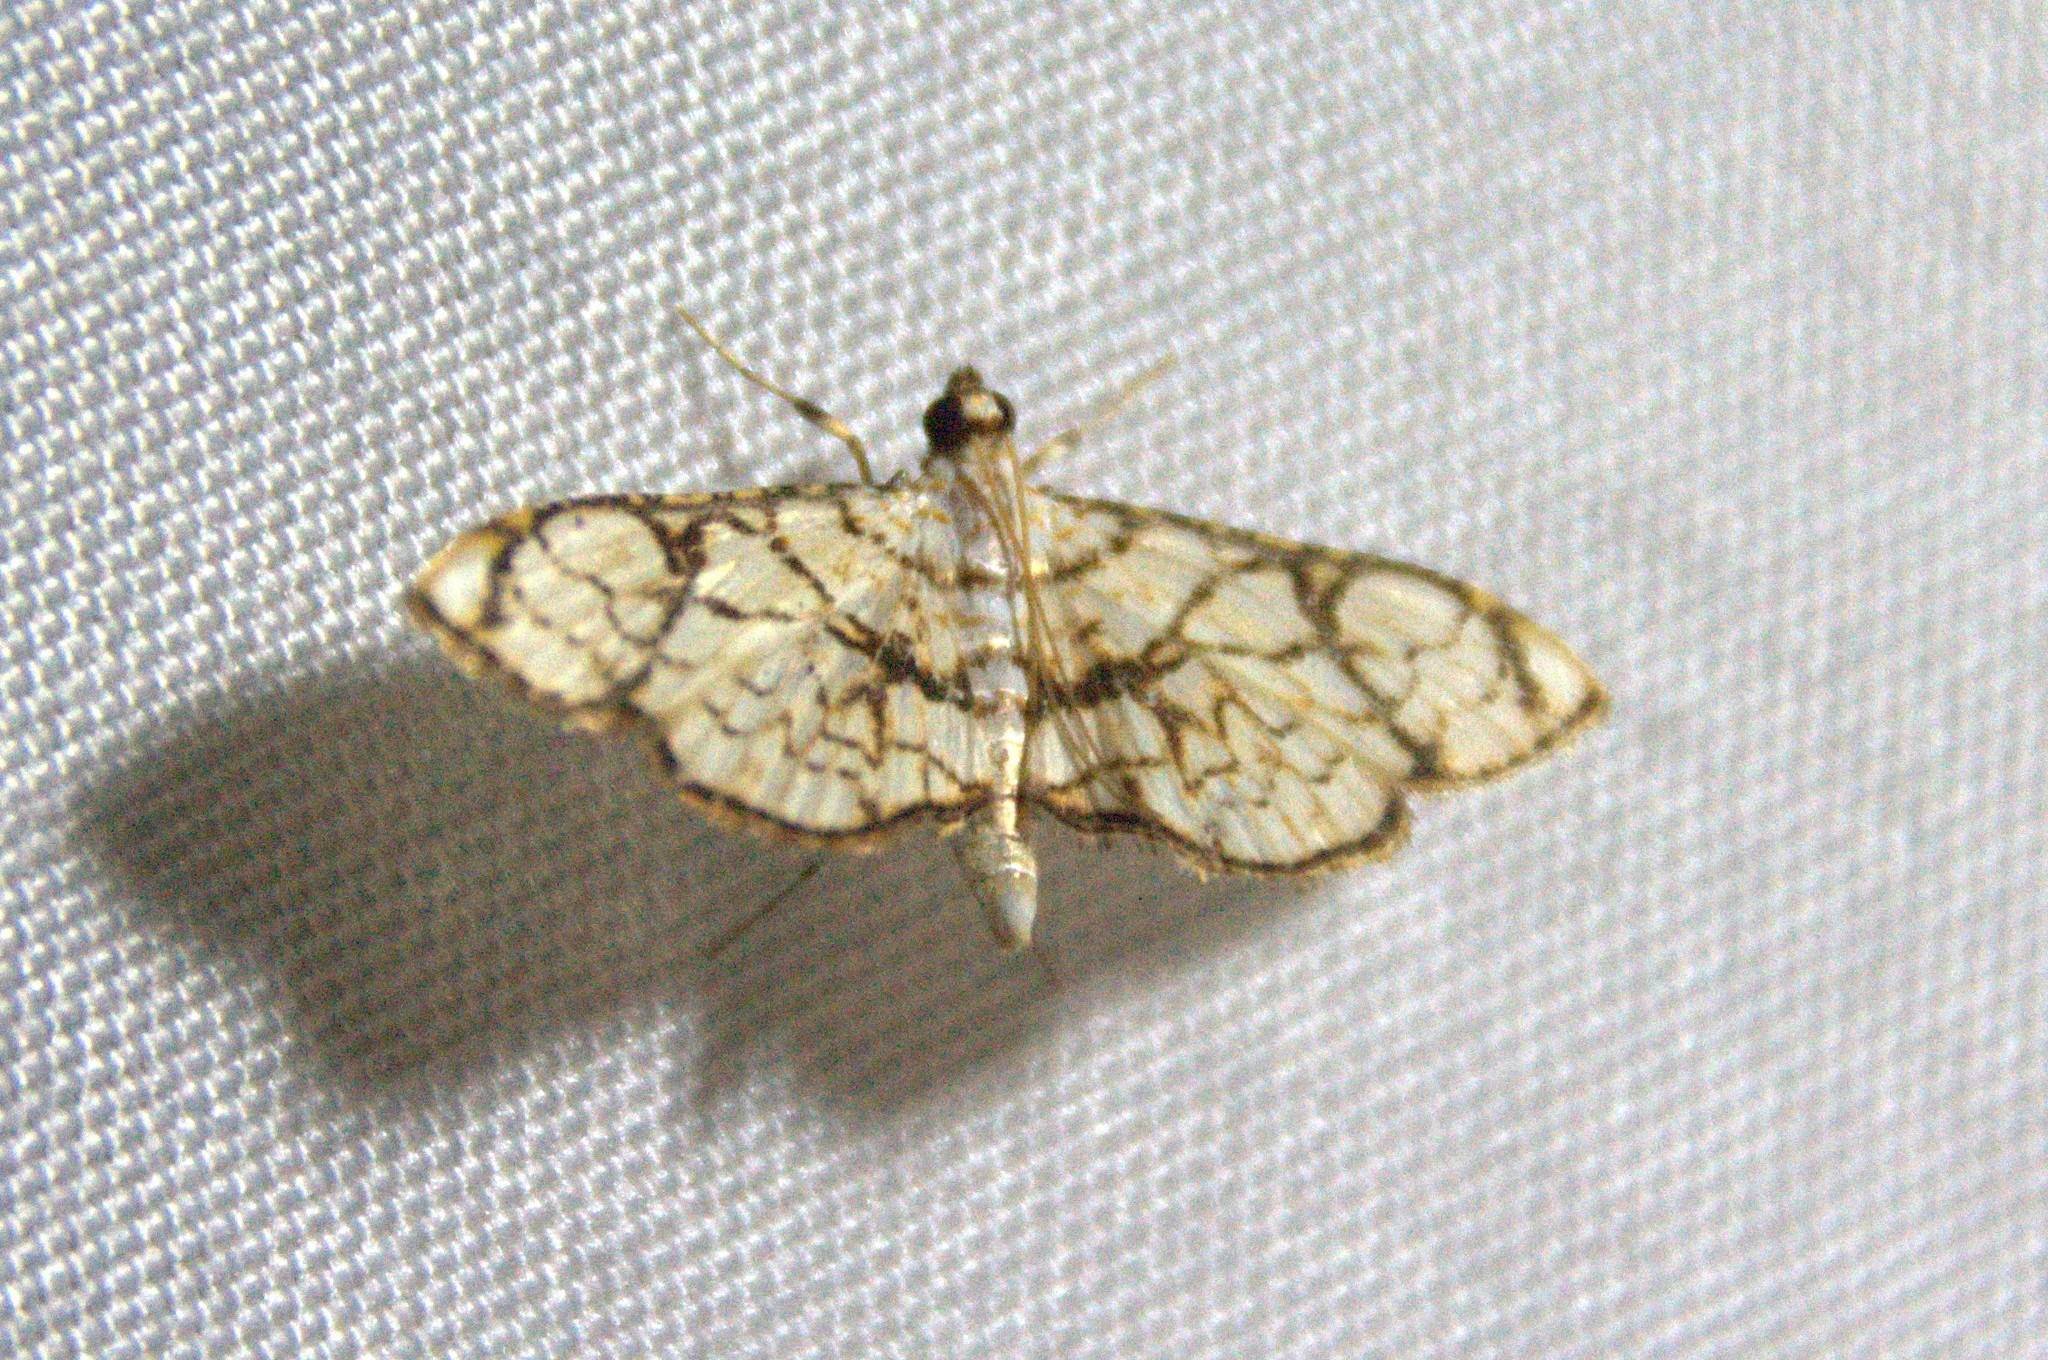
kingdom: Animalia
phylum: Arthropoda
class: Insecta
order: Lepidoptera
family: Crambidae
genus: Hileithia
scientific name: Hileithia obliqualis
